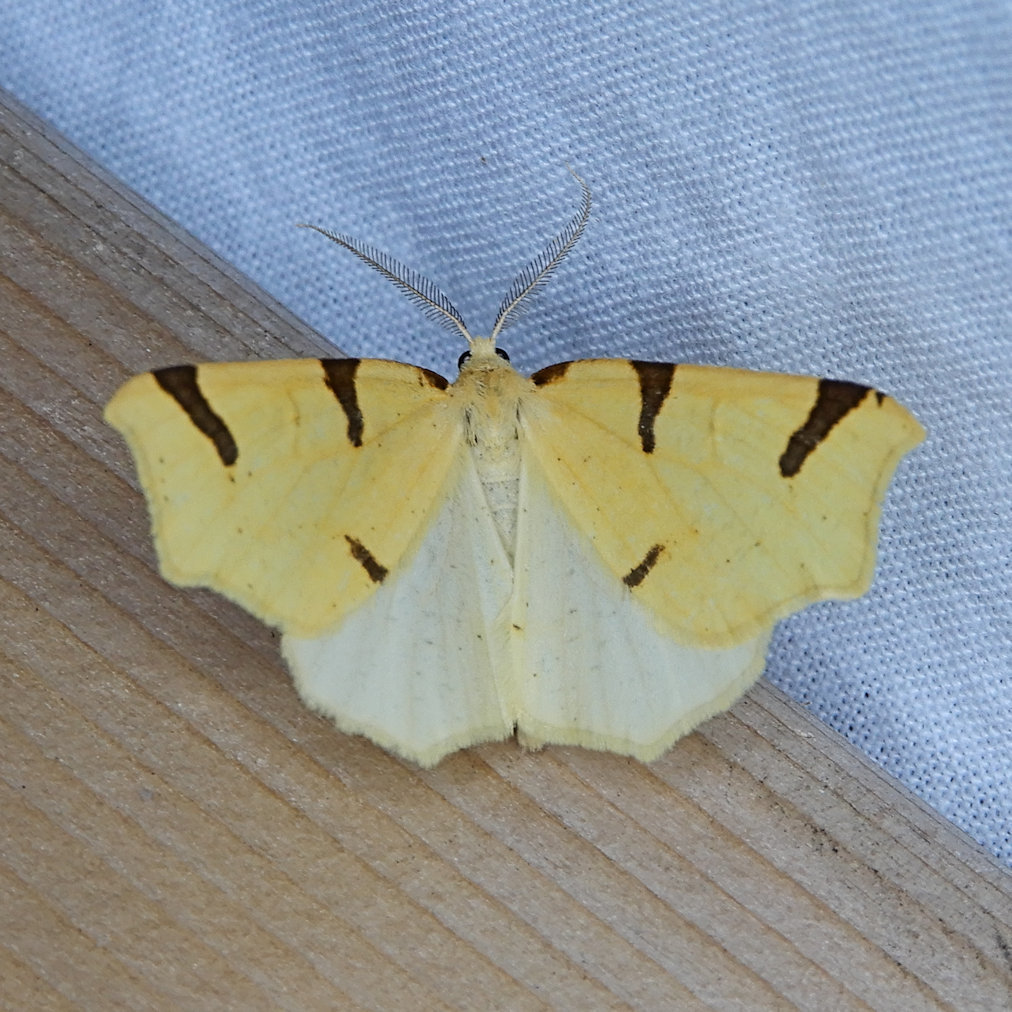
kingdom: Animalia
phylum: Arthropoda
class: Insecta
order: Lepidoptera
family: Geometridae
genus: Neoterpes
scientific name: Neoterpes trianguliferata
